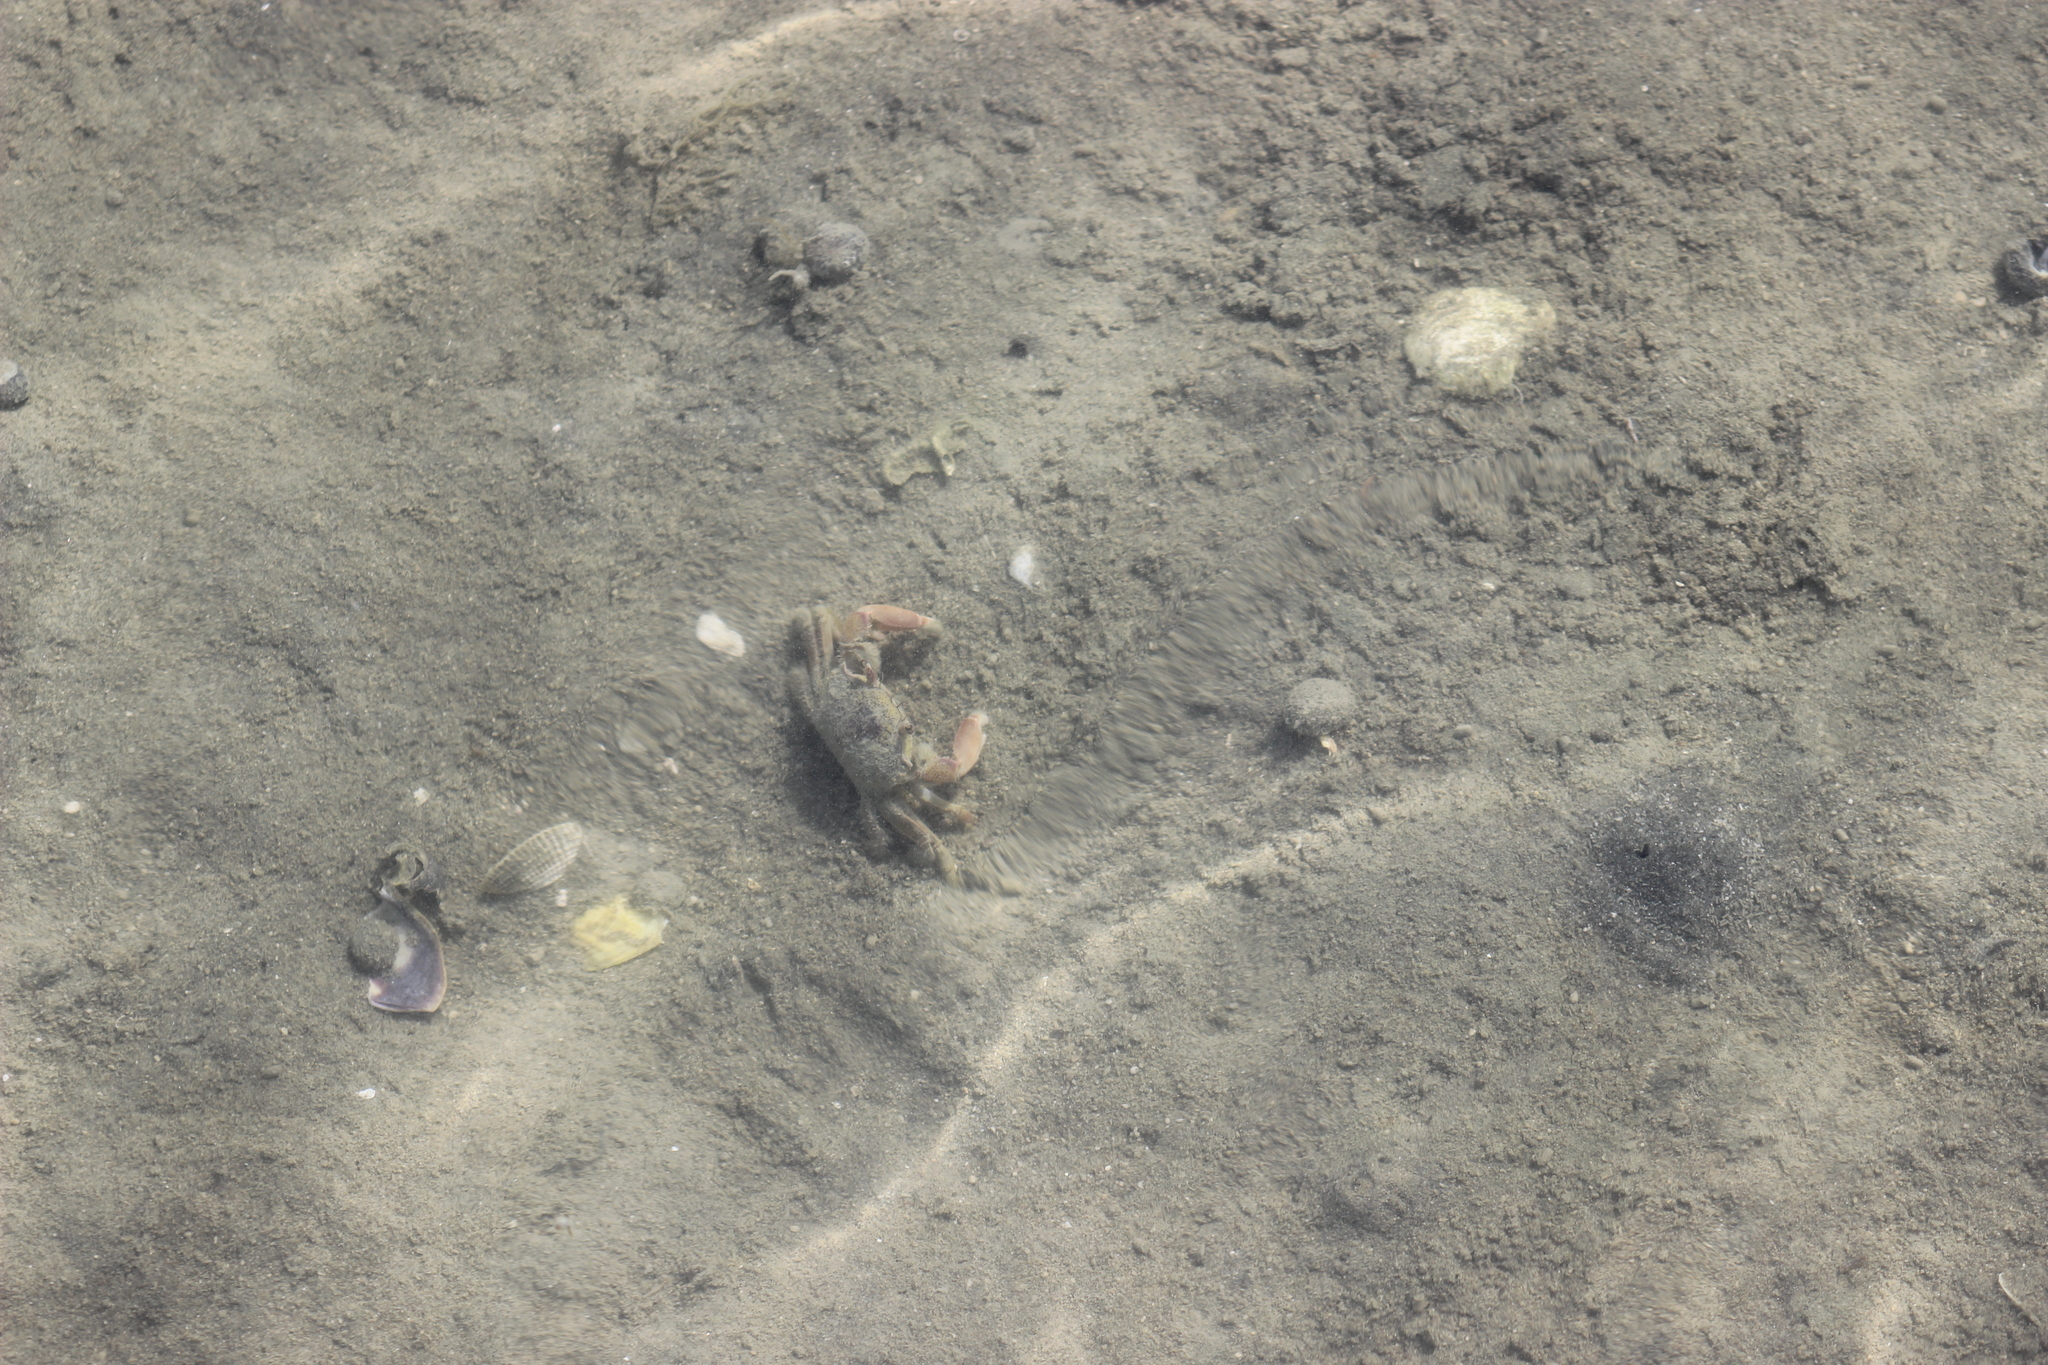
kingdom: Animalia
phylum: Arthropoda
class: Malacostraca
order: Decapoda
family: Macrophthalmidae
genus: Hemiplax
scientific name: Hemiplax hirtipes
